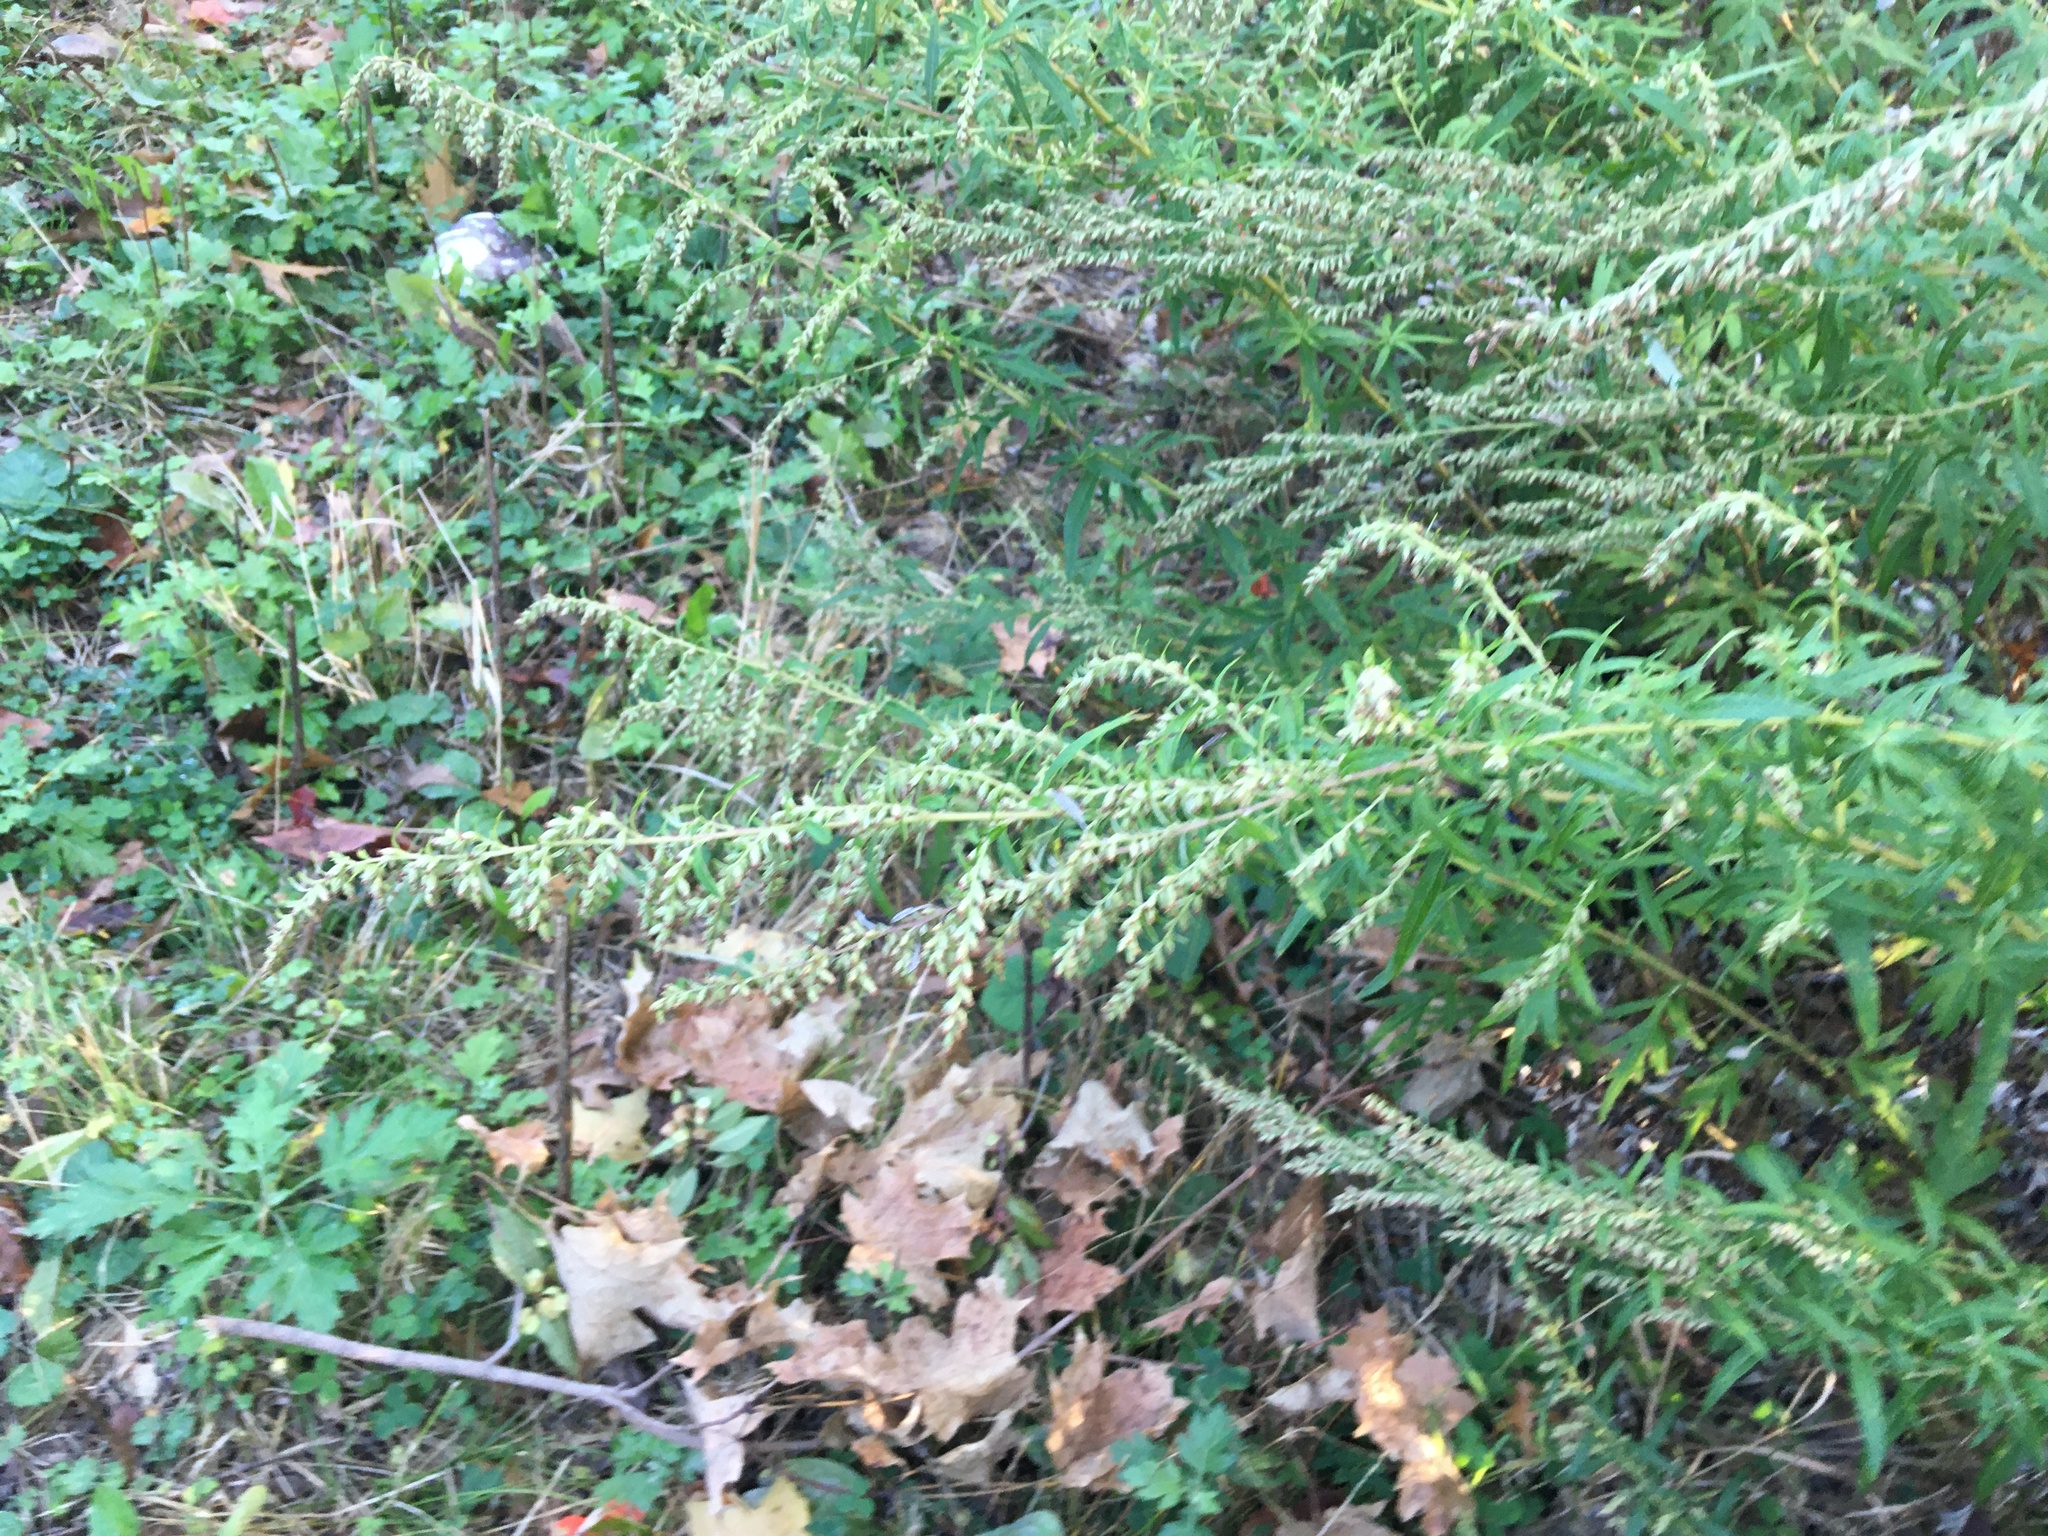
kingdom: Plantae
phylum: Tracheophyta
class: Magnoliopsida
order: Asterales
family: Asteraceae
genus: Artemisia
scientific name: Artemisia vulgaris
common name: Mugwort
